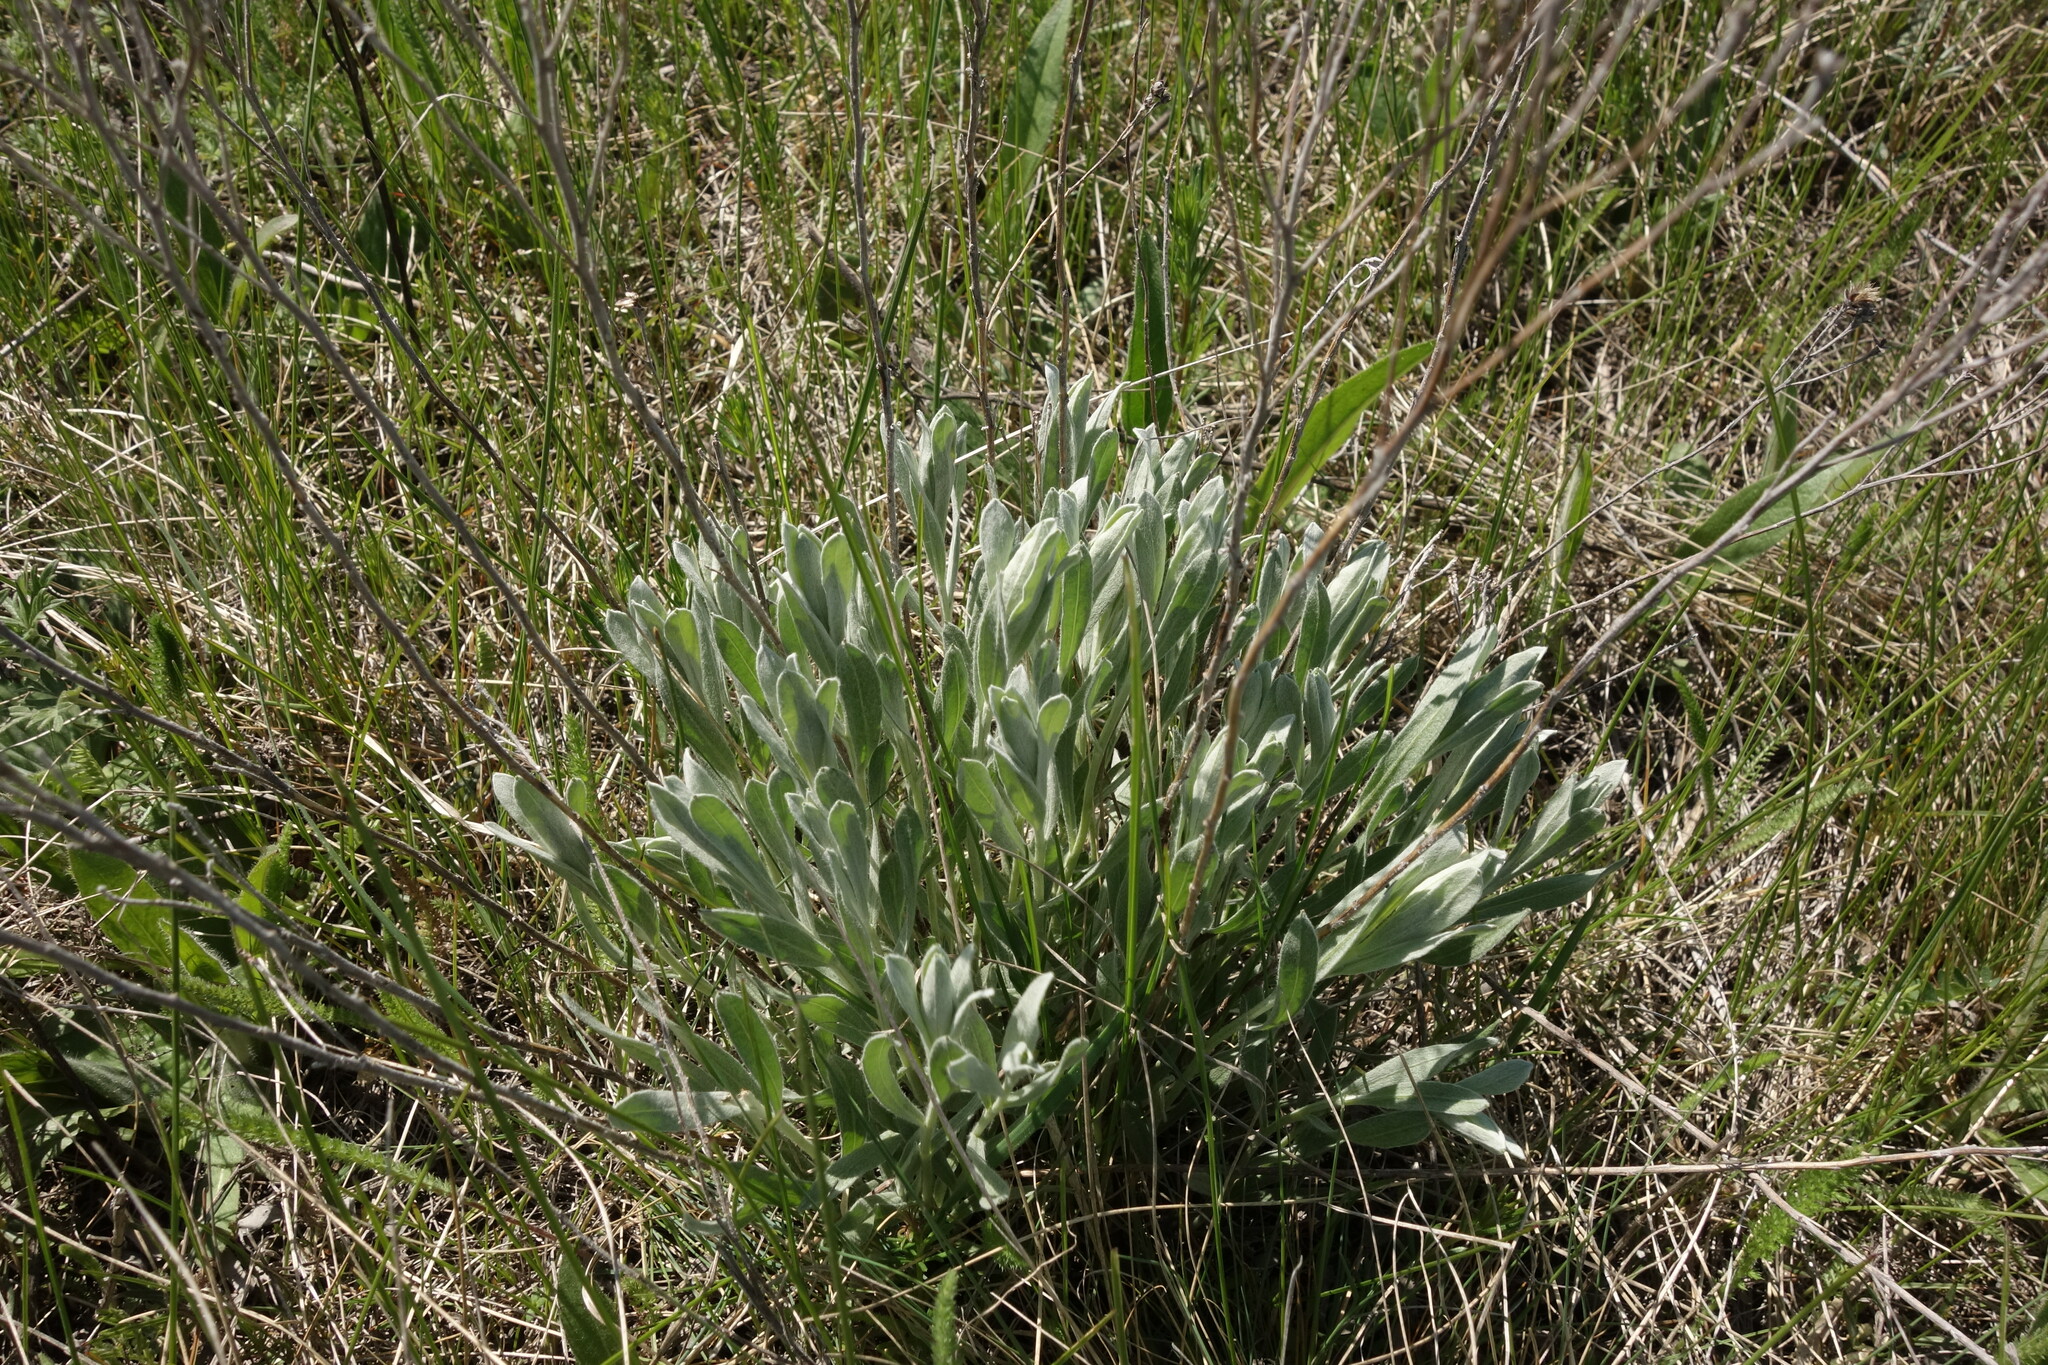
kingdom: Plantae
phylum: Tracheophyta
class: Magnoliopsida
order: Asterales
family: Asteraceae
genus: Galatella
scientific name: Galatella villosa
